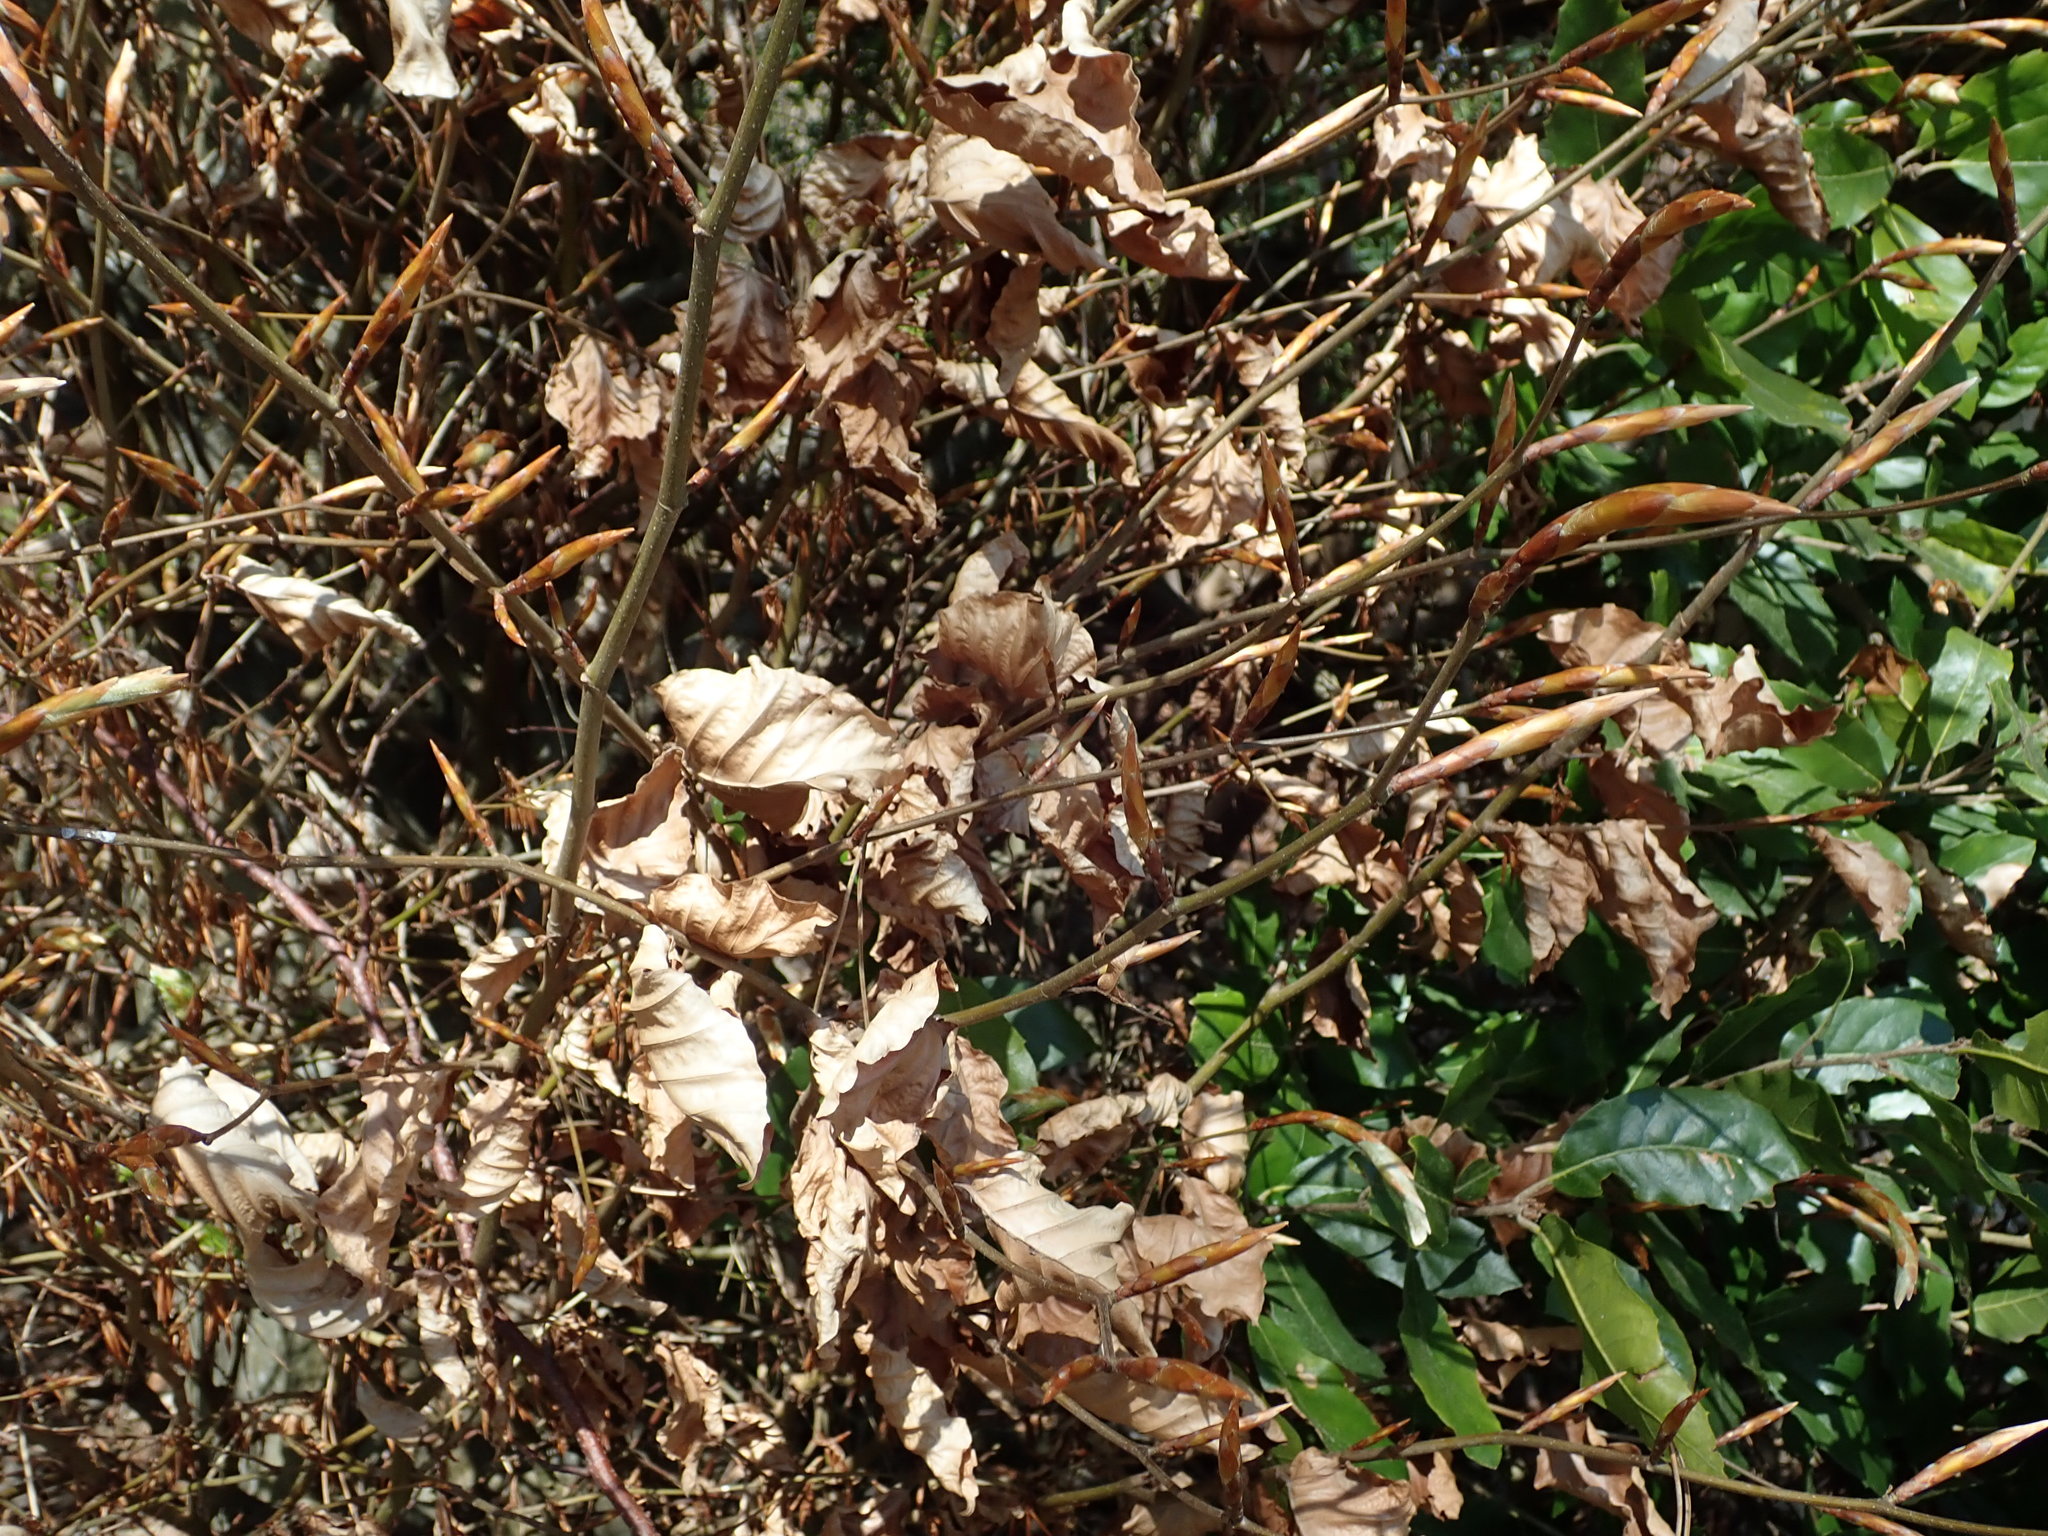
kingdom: Plantae
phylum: Tracheophyta
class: Magnoliopsida
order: Fagales
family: Fagaceae
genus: Fagus
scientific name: Fagus sylvatica
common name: Beech
